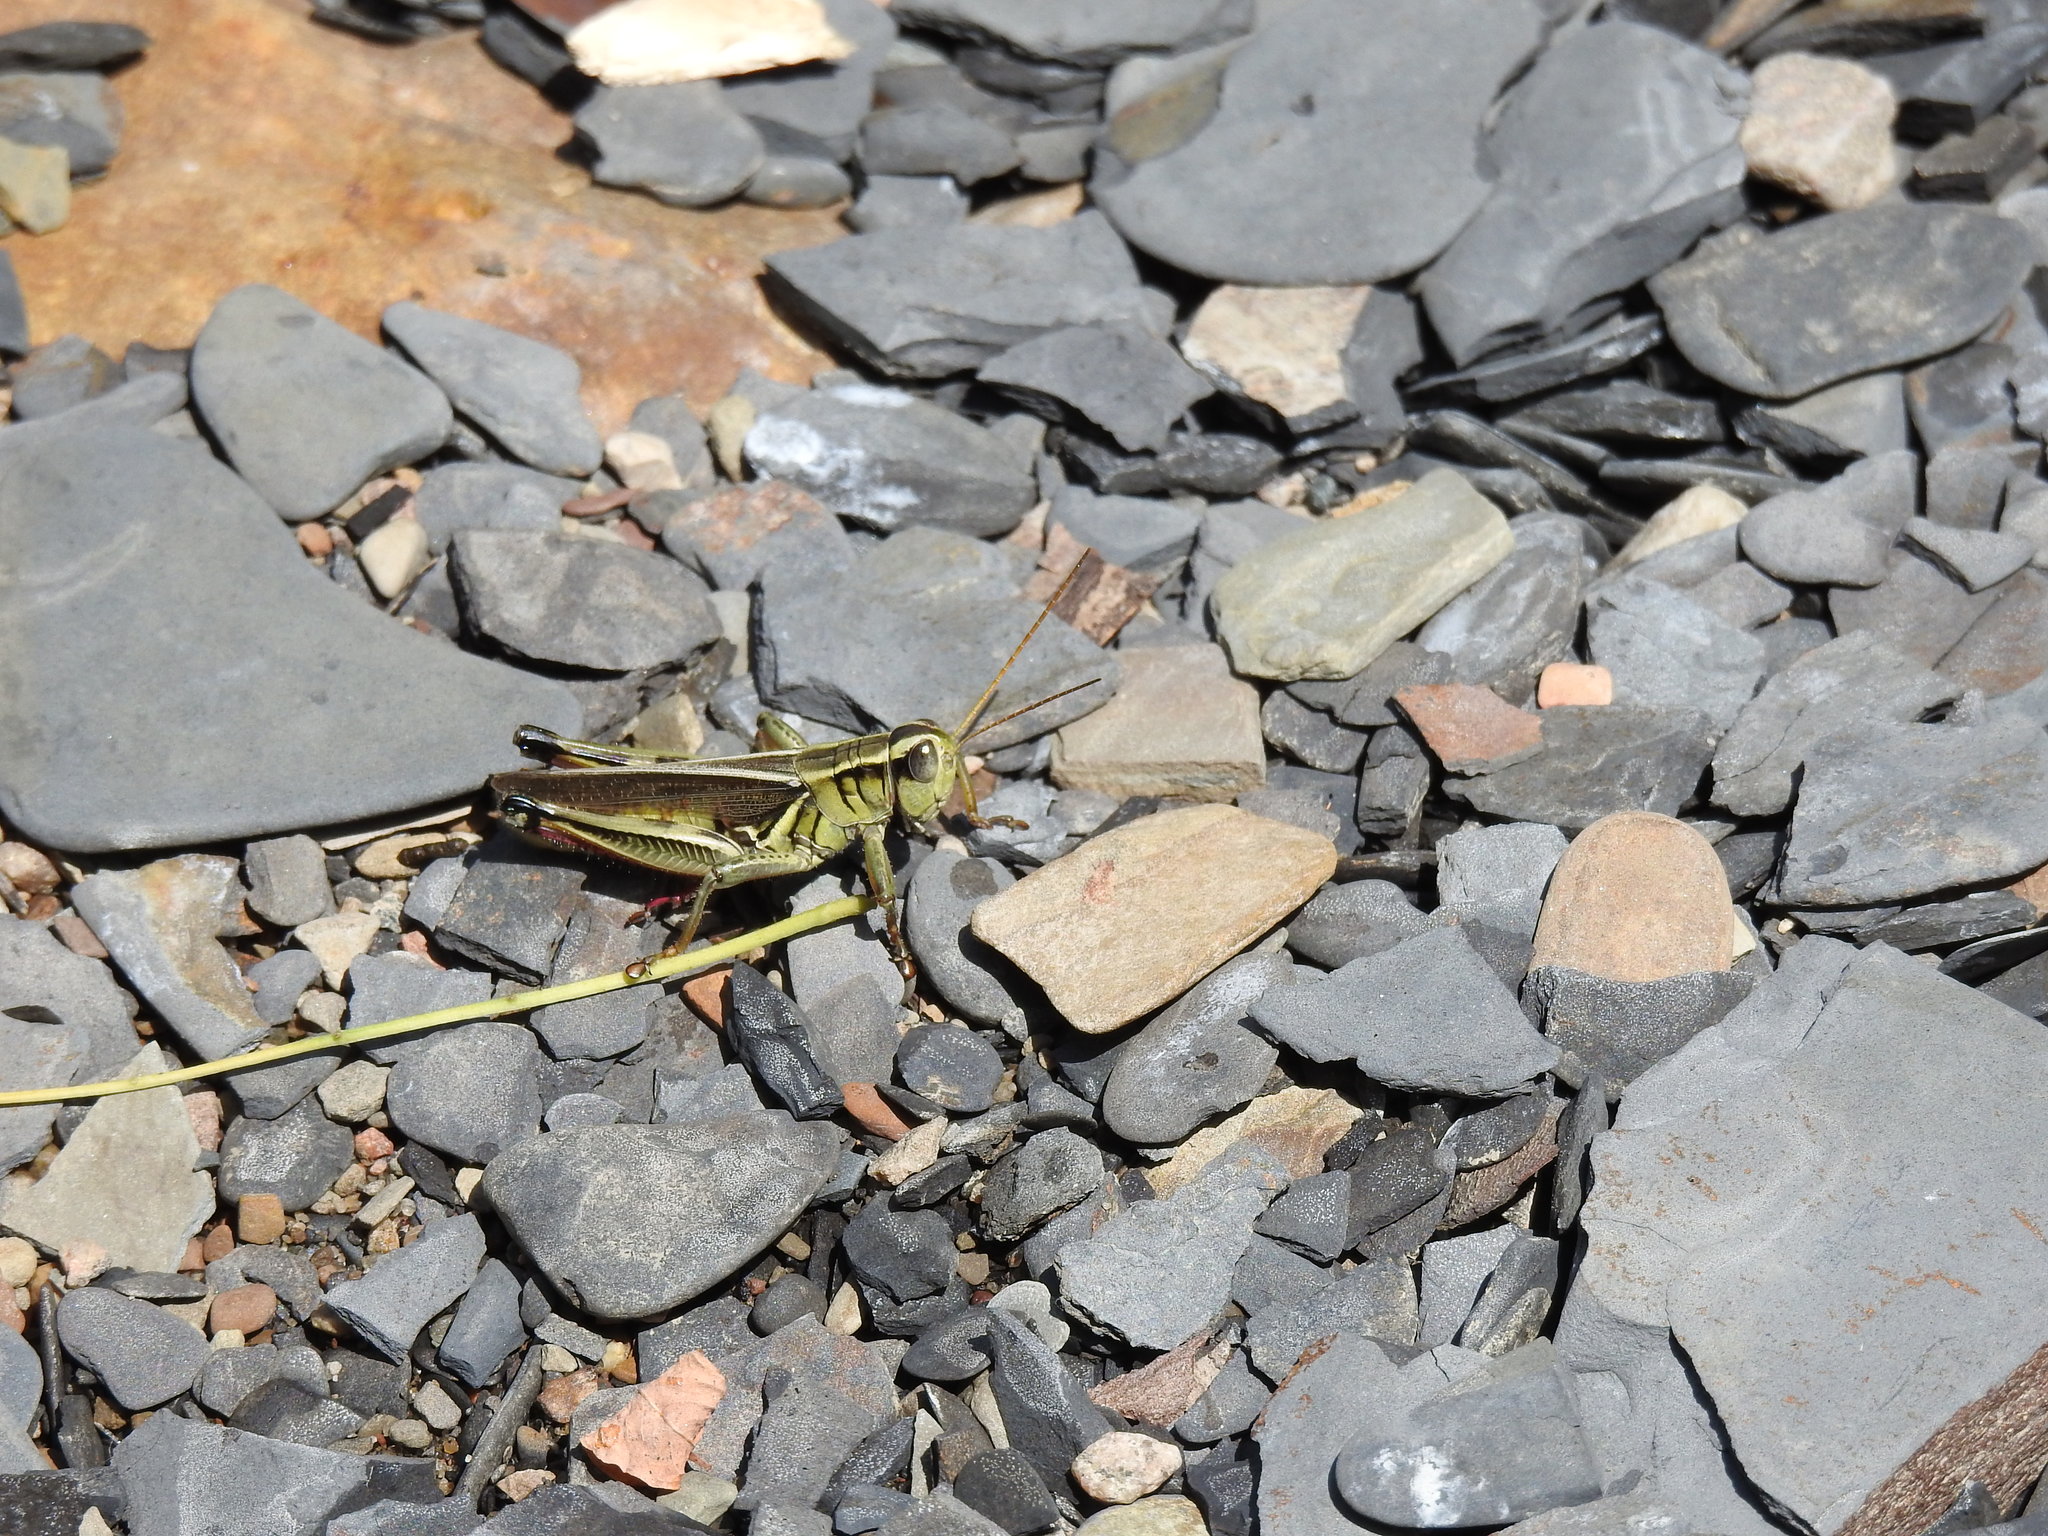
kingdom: Animalia
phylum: Arthropoda
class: Insecta
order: Orthoptera
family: Acrididae
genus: Melanoplus
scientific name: Melanoplus bivittatus
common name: Two-striped grasshopper
